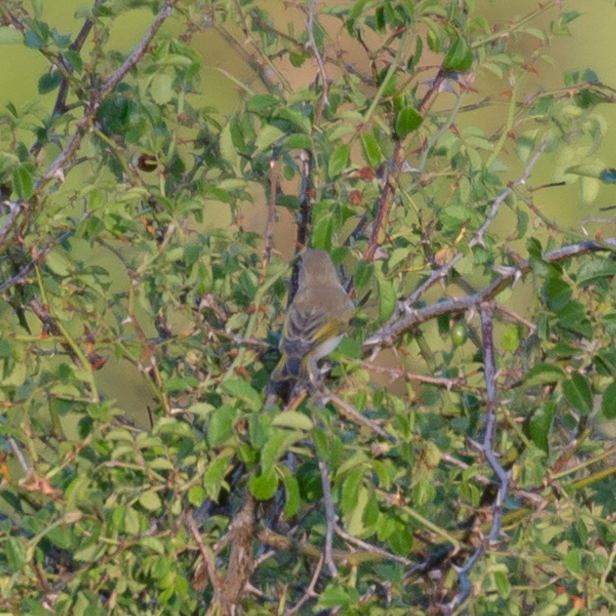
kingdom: Animalia
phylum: Chordata
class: Aves
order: Passeriformes
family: Phylloscopidae
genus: Phylloscopus
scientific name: Phylloscopus bonelli
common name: Western bonelli's warbler
